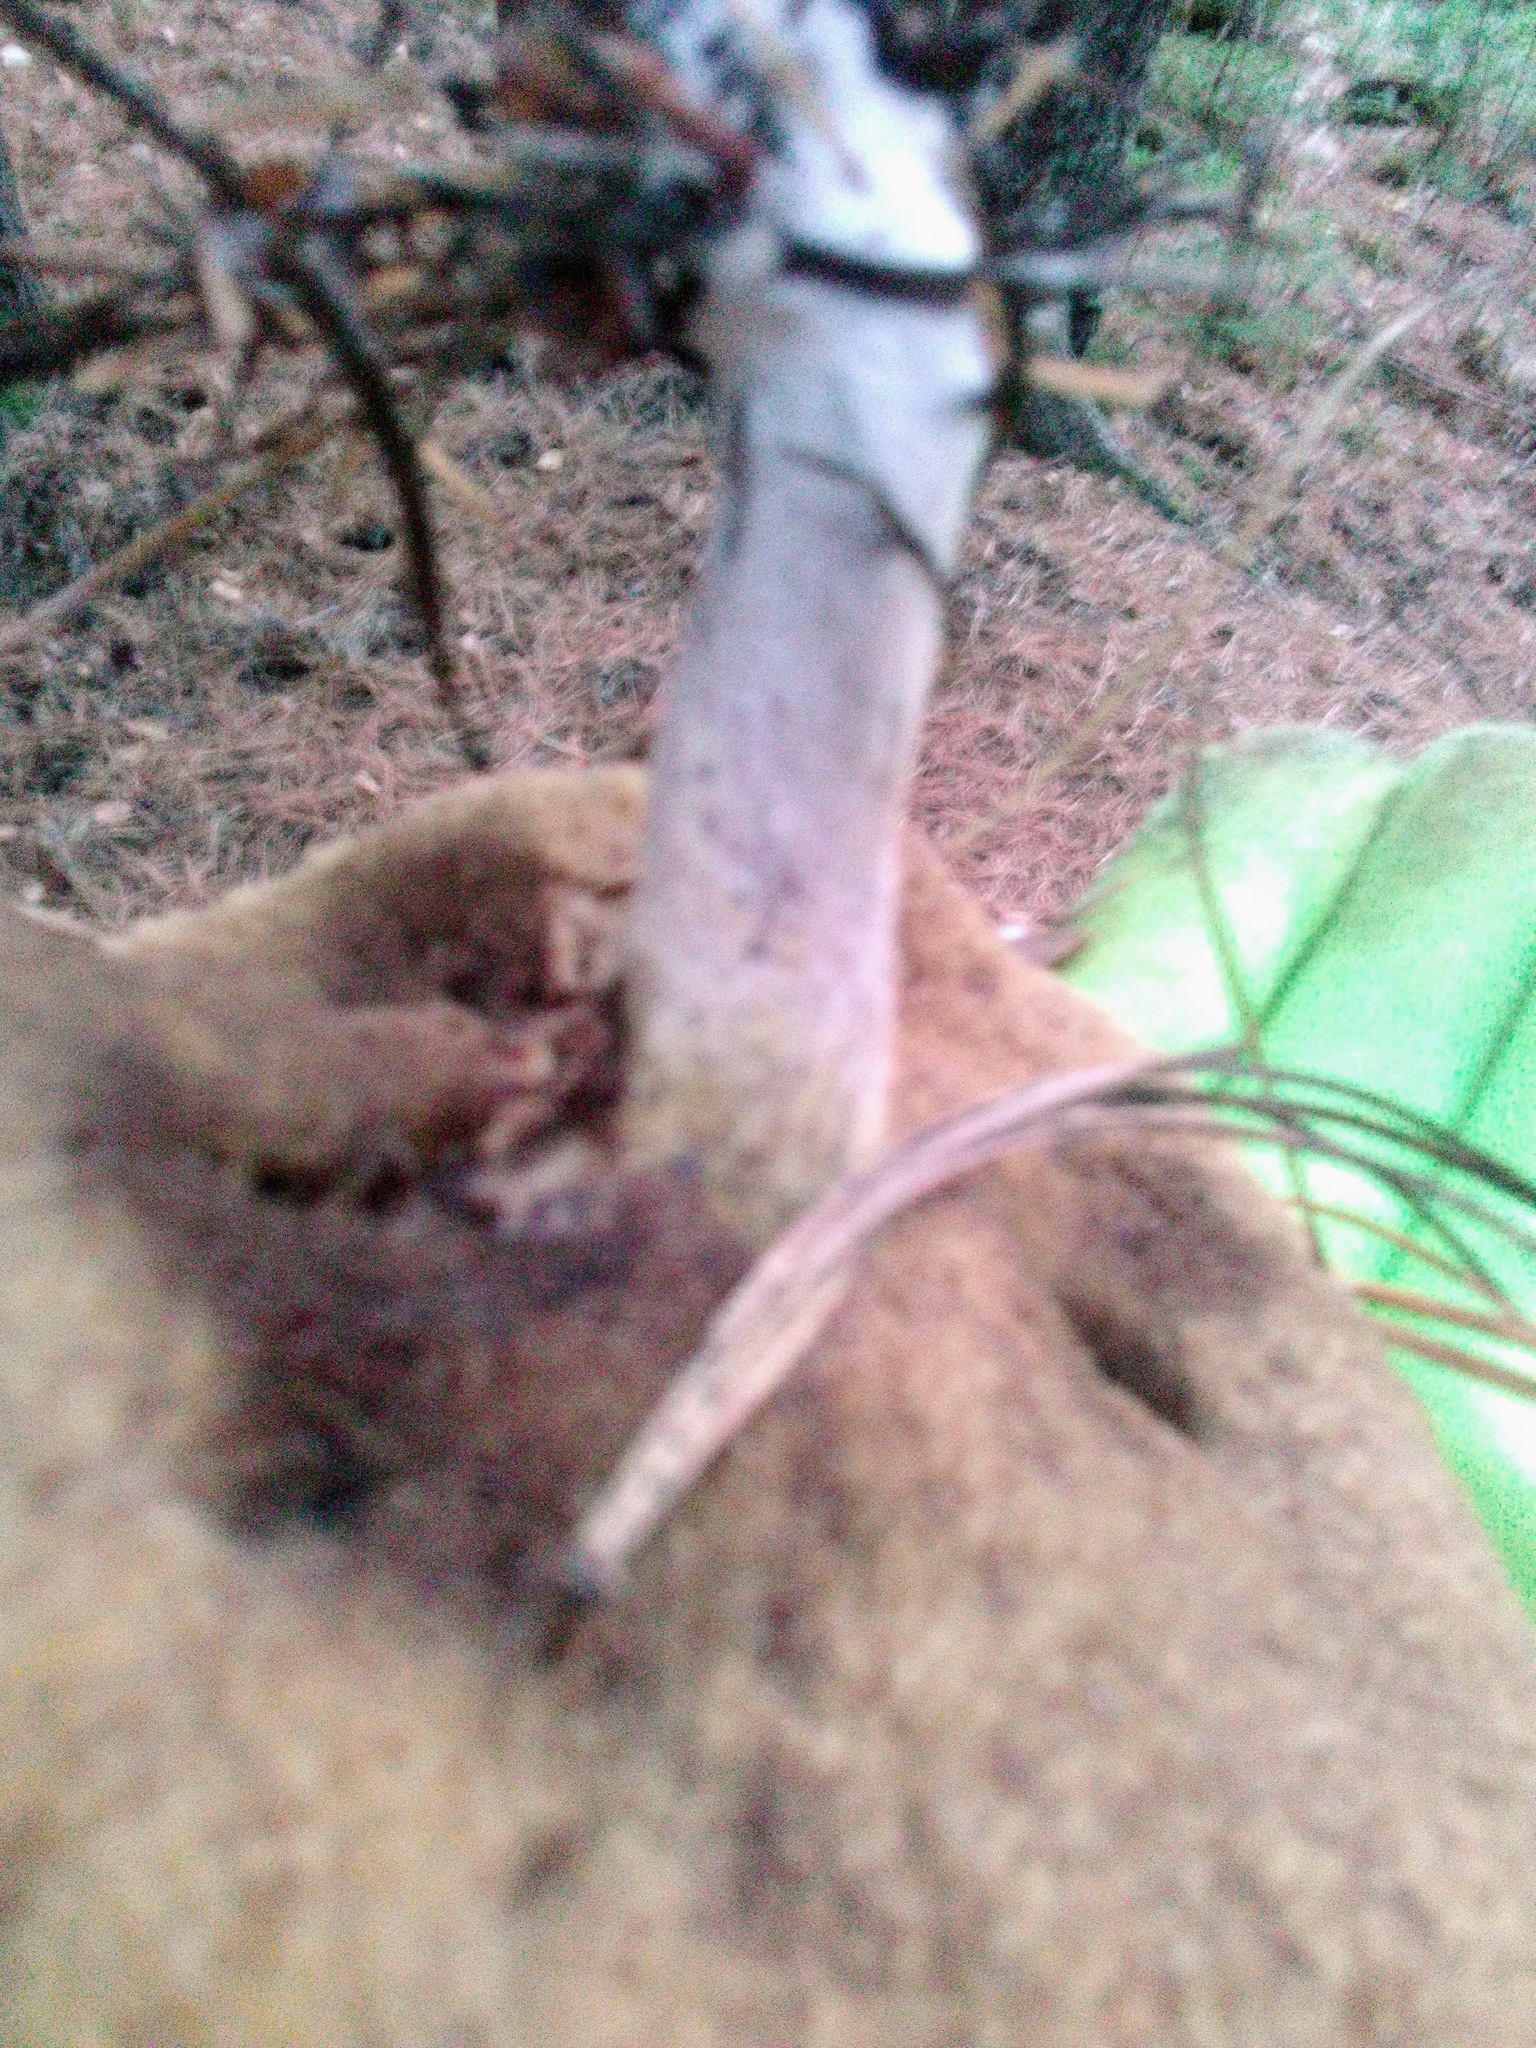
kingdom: Fungi
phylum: Basidiomycota
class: Agaricomycetes
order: Boletales
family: Suillaceae
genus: Suillus
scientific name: Suillus placidus
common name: Slippery white bolete
